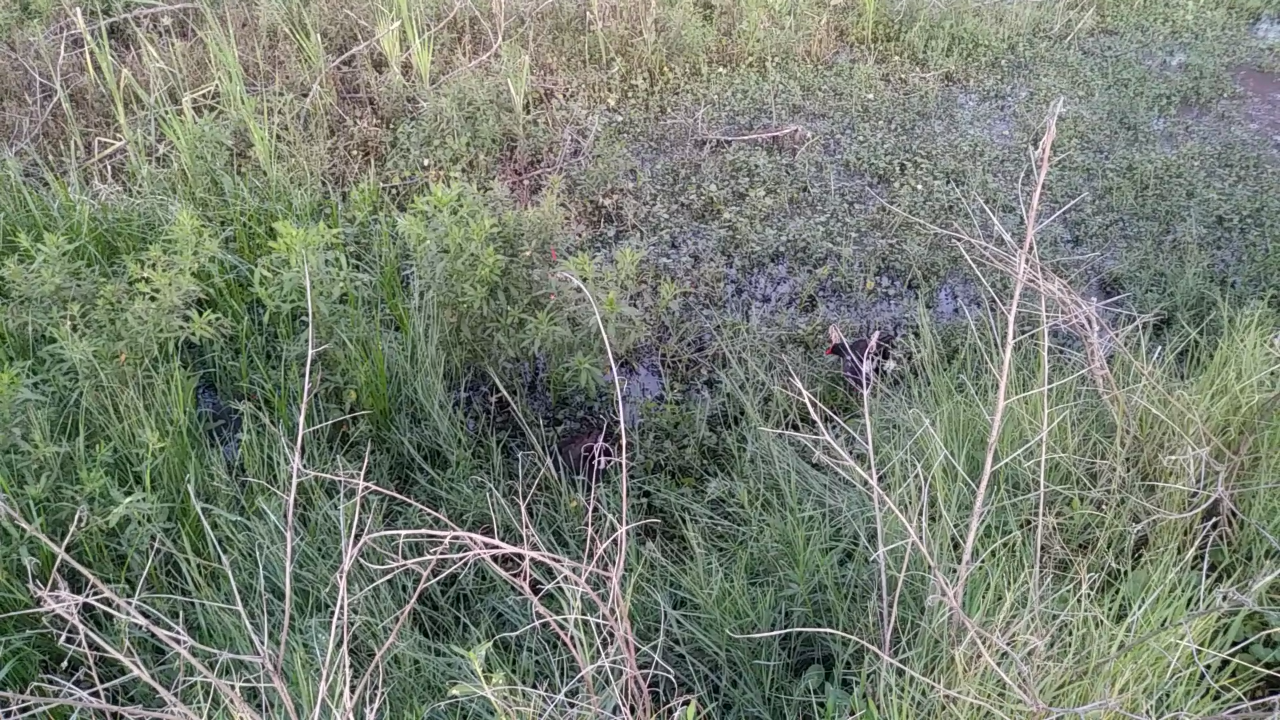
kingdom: Animalia
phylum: Chordata
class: Aves
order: Gruiformes
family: Rallidae
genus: Gallinula
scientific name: Gallinula chloropus
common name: Common moorhen
